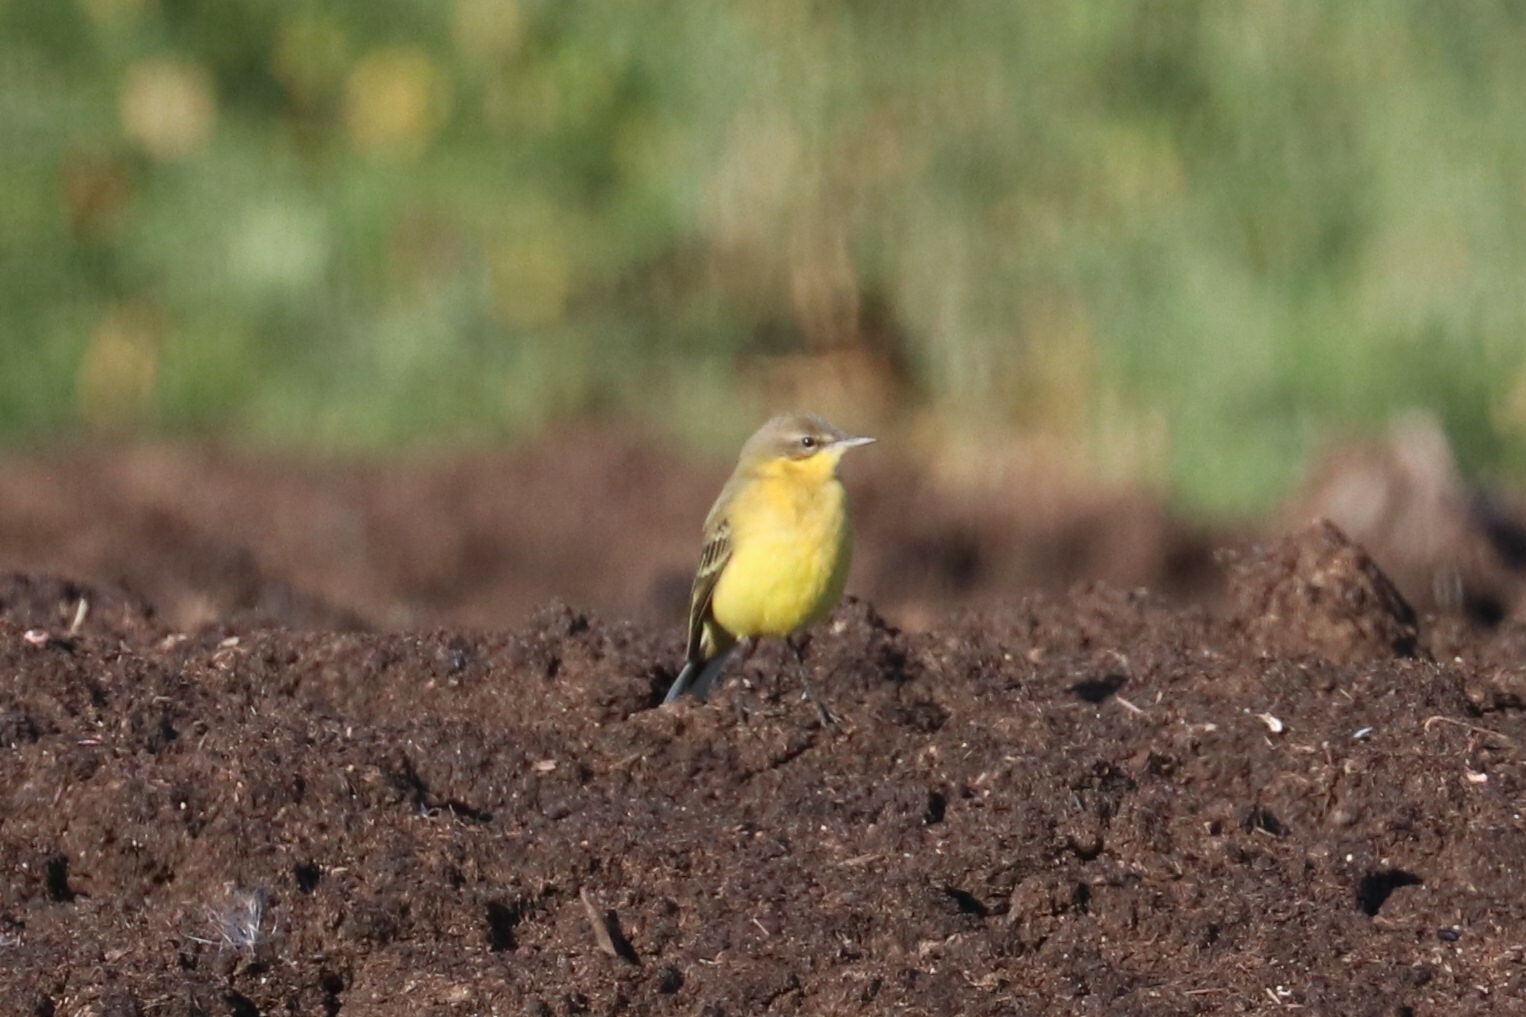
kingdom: Animalia
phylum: Chordata
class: Aves
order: Passeriformes
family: Motacillidae
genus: Motacilla
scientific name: Motacilla flava
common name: Western yellow wagtail
